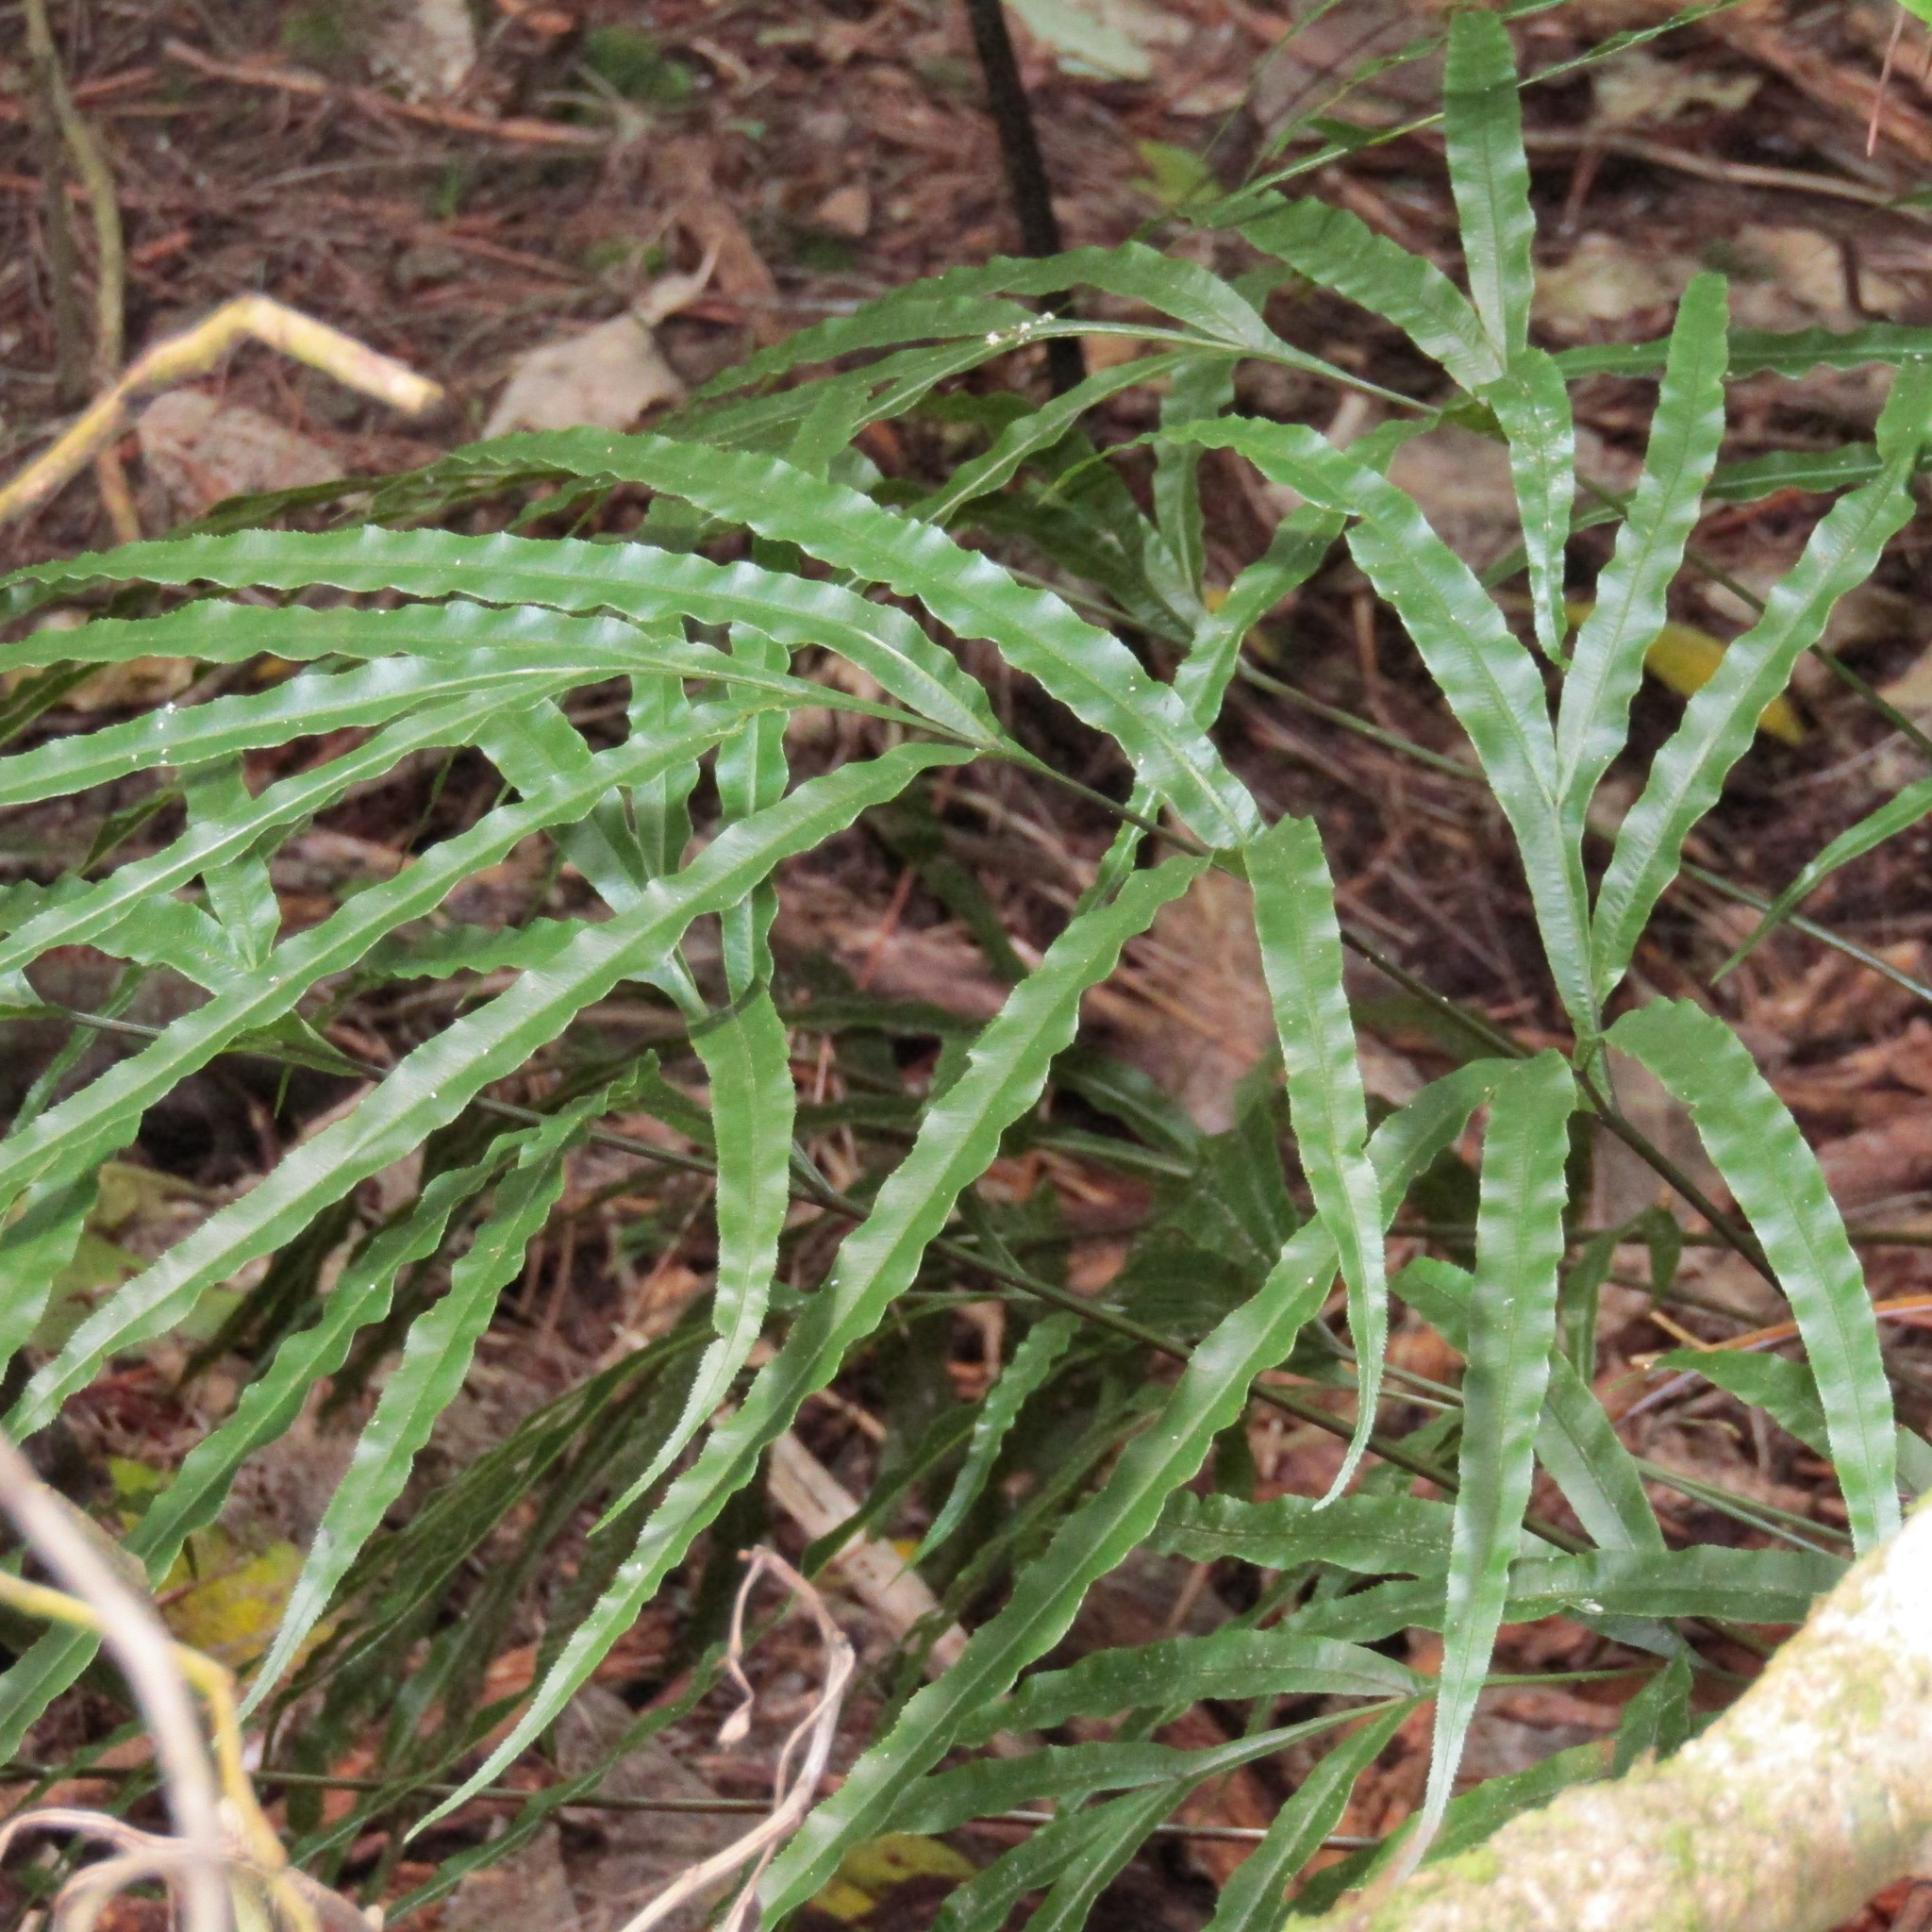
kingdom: Plantae
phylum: Tracheophyta
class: Polypodiopsida
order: Polypodiales
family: Pteridaceae
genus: Pteris
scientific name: Pteris cretica
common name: Ribbon fern
